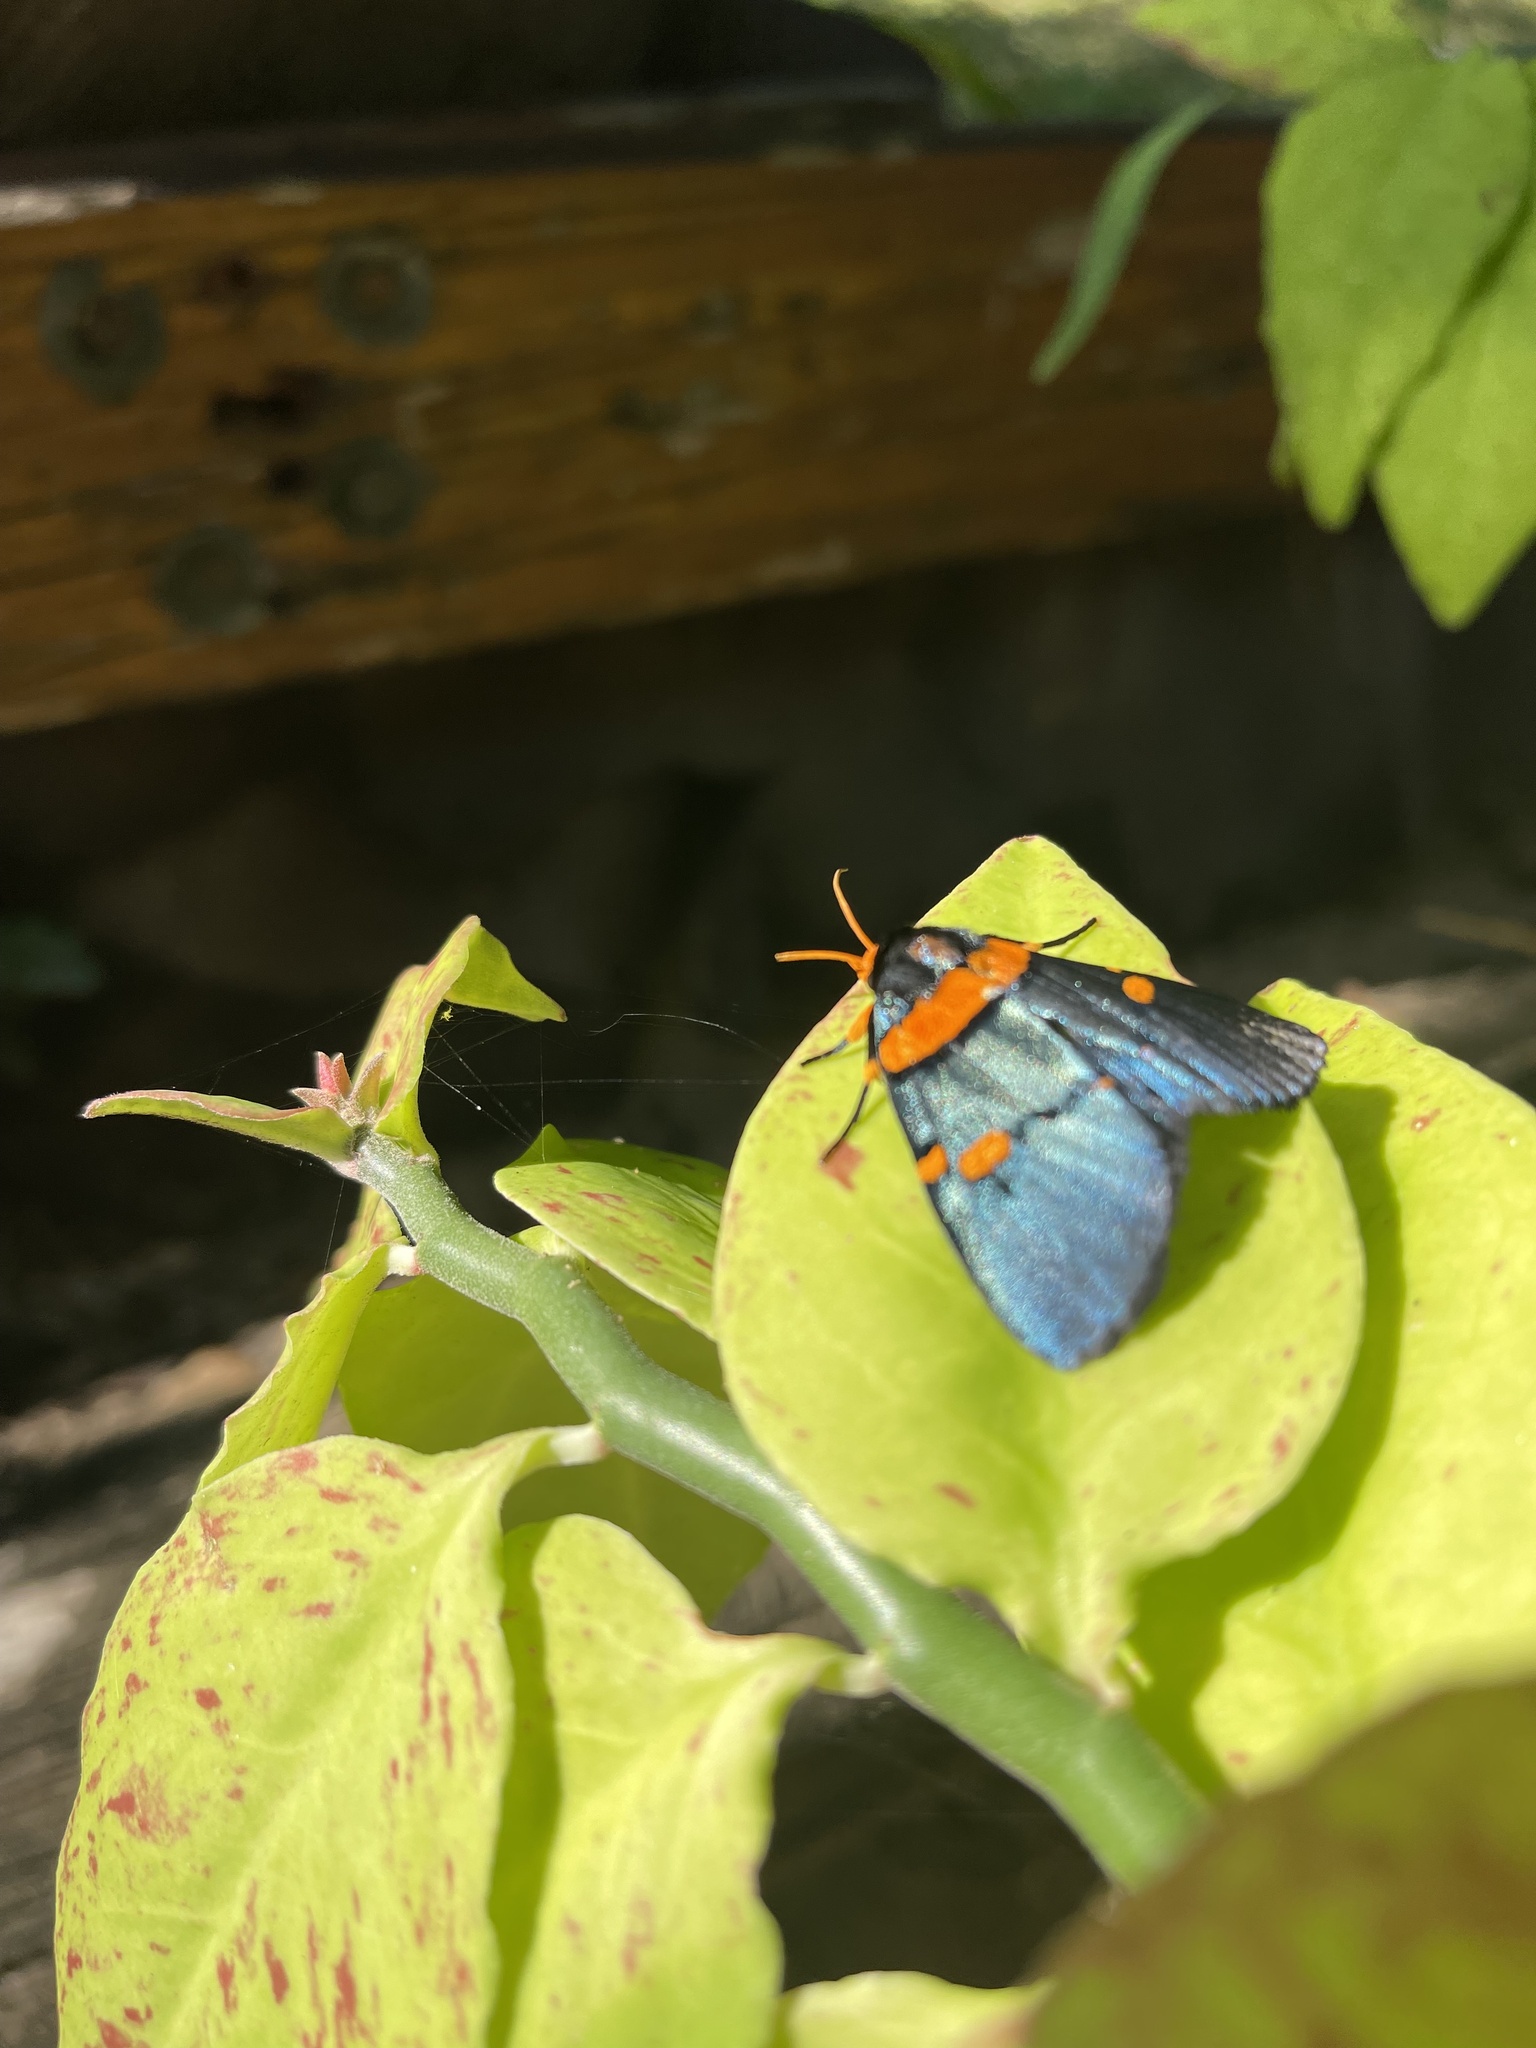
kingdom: Animalia
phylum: Arthropoda
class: Insecta
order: Lepidoptera
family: Erebidae
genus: Egybolis
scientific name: Egybolis vaillantina
